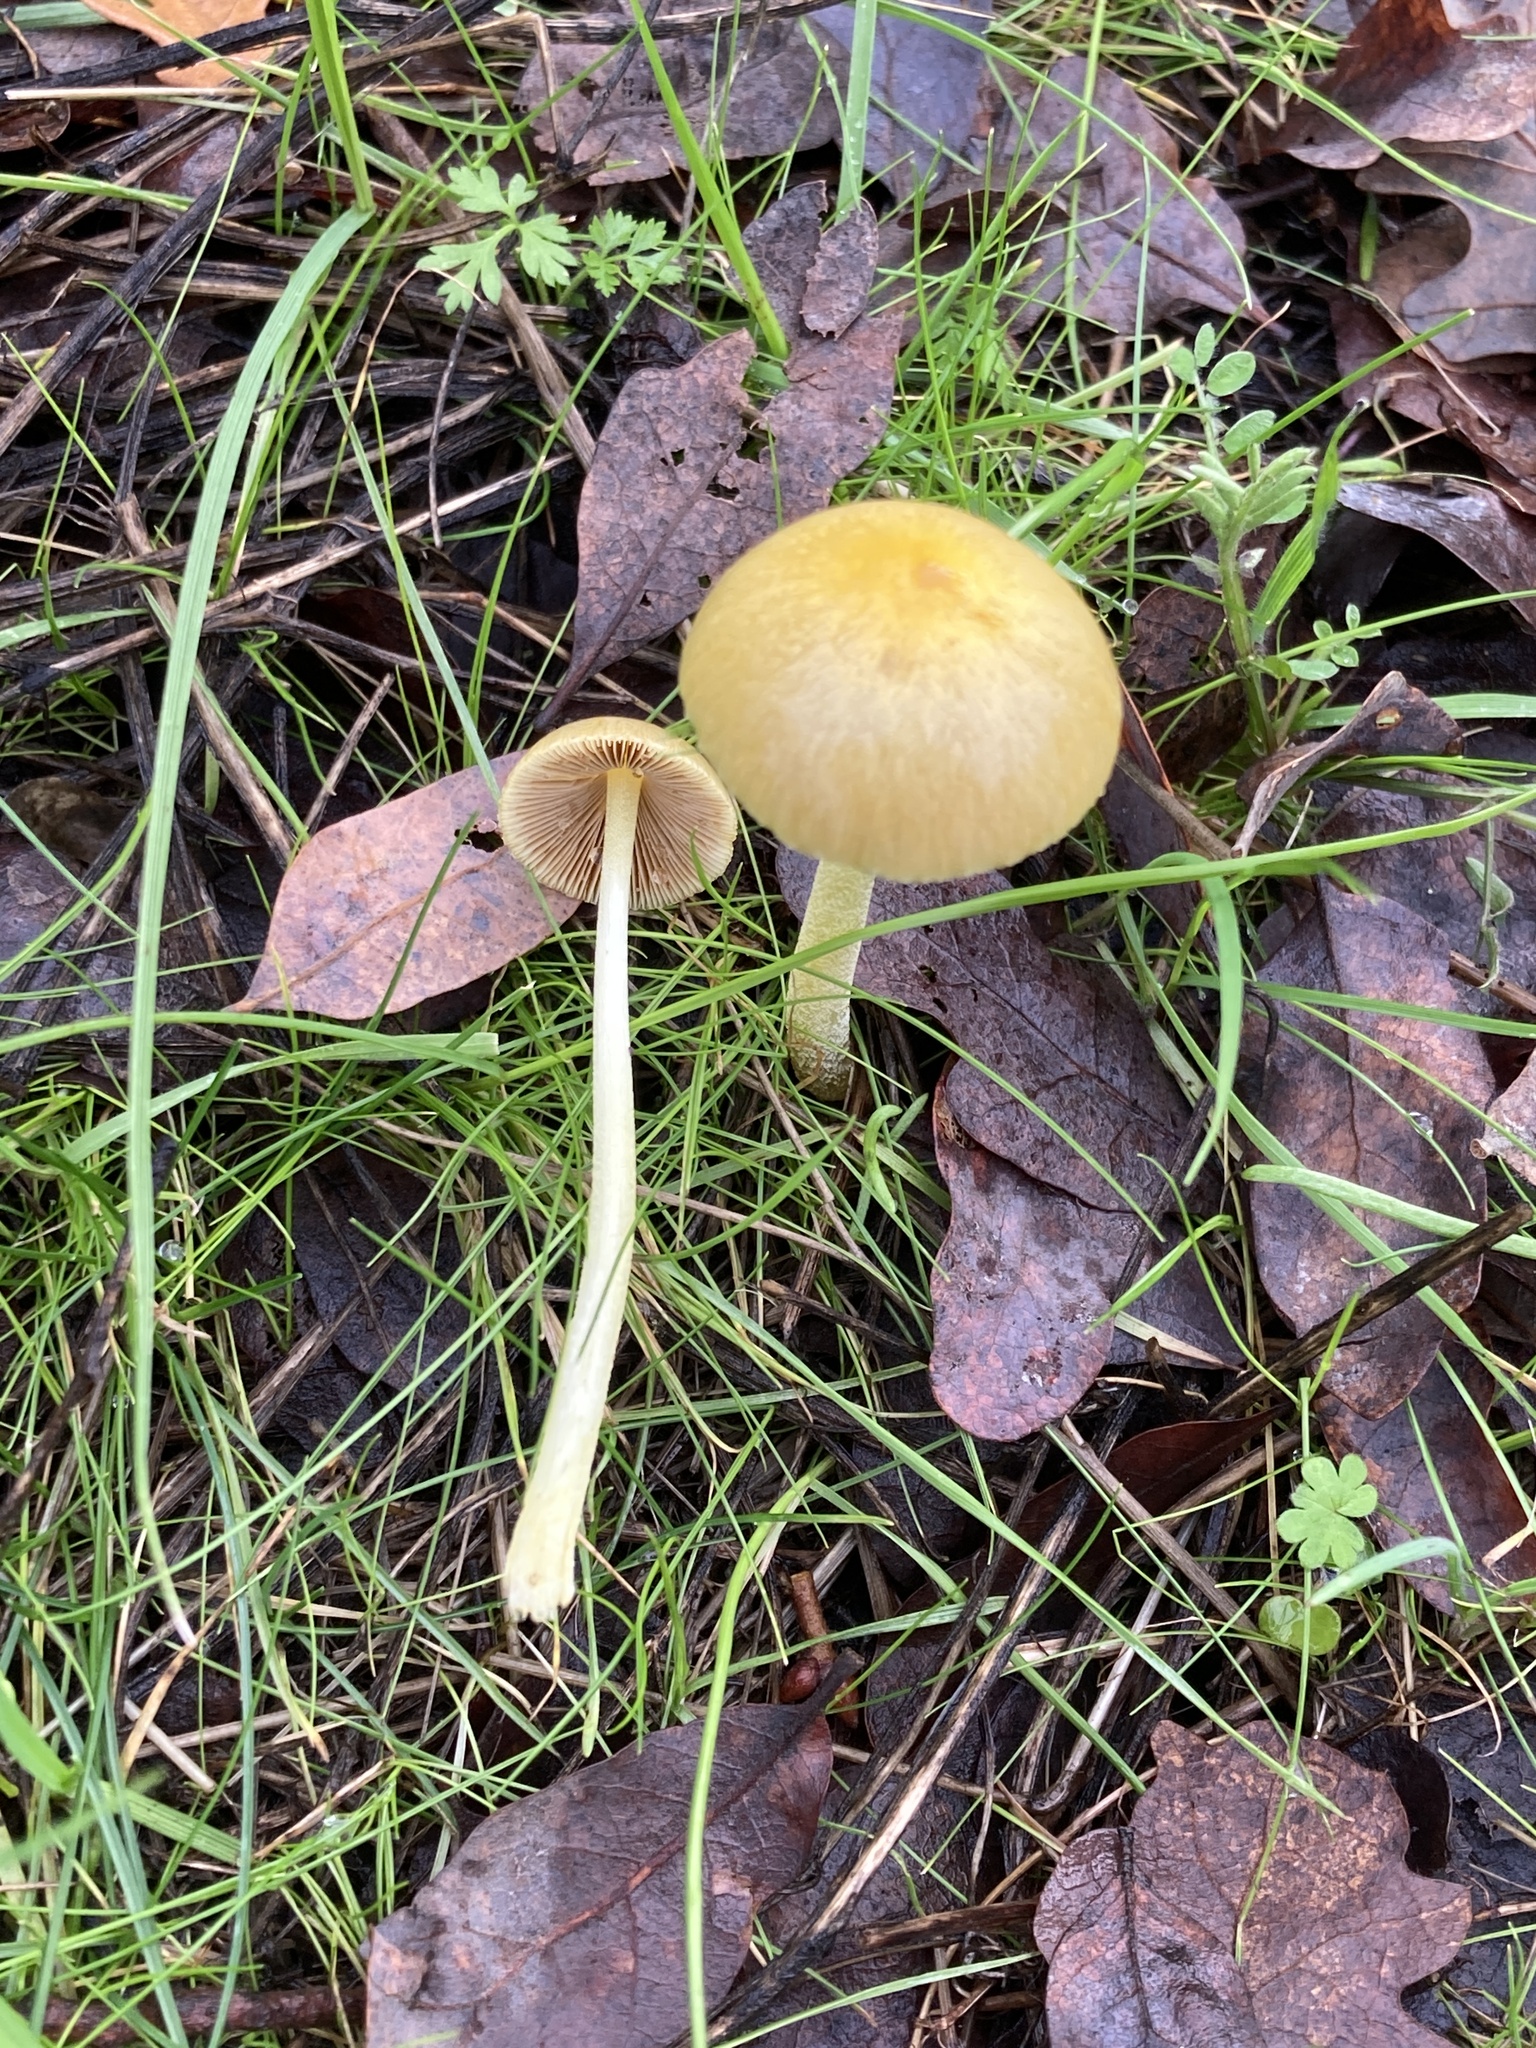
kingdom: Fungi
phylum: Basidiomycota
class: Agaricomycetes
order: Agaricales
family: Bolbitiaceae
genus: Bolbitius
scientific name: Bolbitius titubans
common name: Yellow fieldcap
